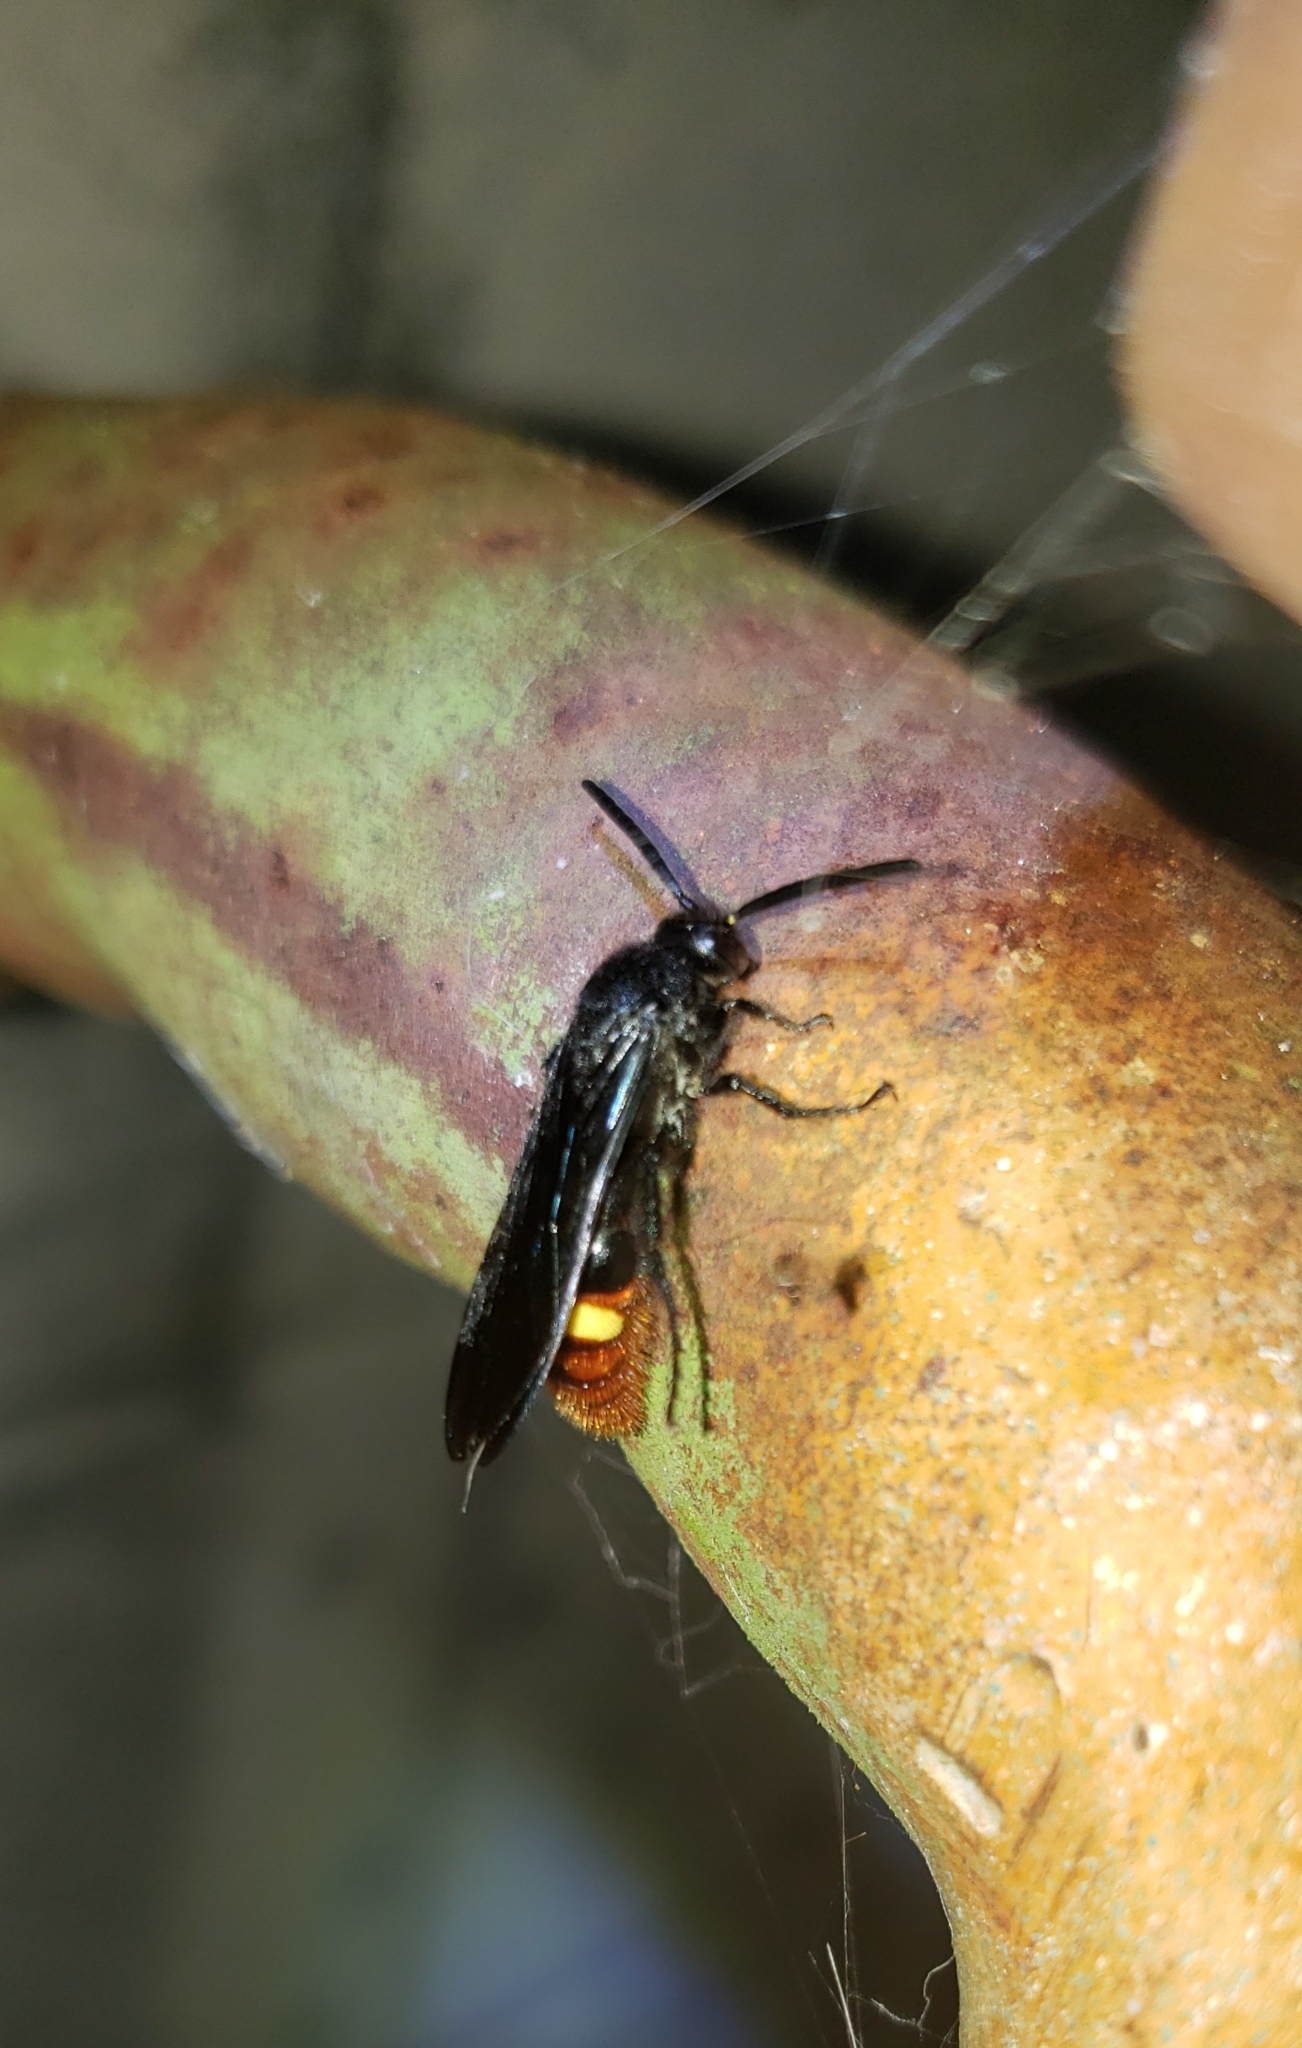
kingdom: Animalia
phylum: Arthropoda
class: Insecta
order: Hymenoptera
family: Scoliidae
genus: Scolia
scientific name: Scolia dubia
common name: Blue-winged scoliid wasp
